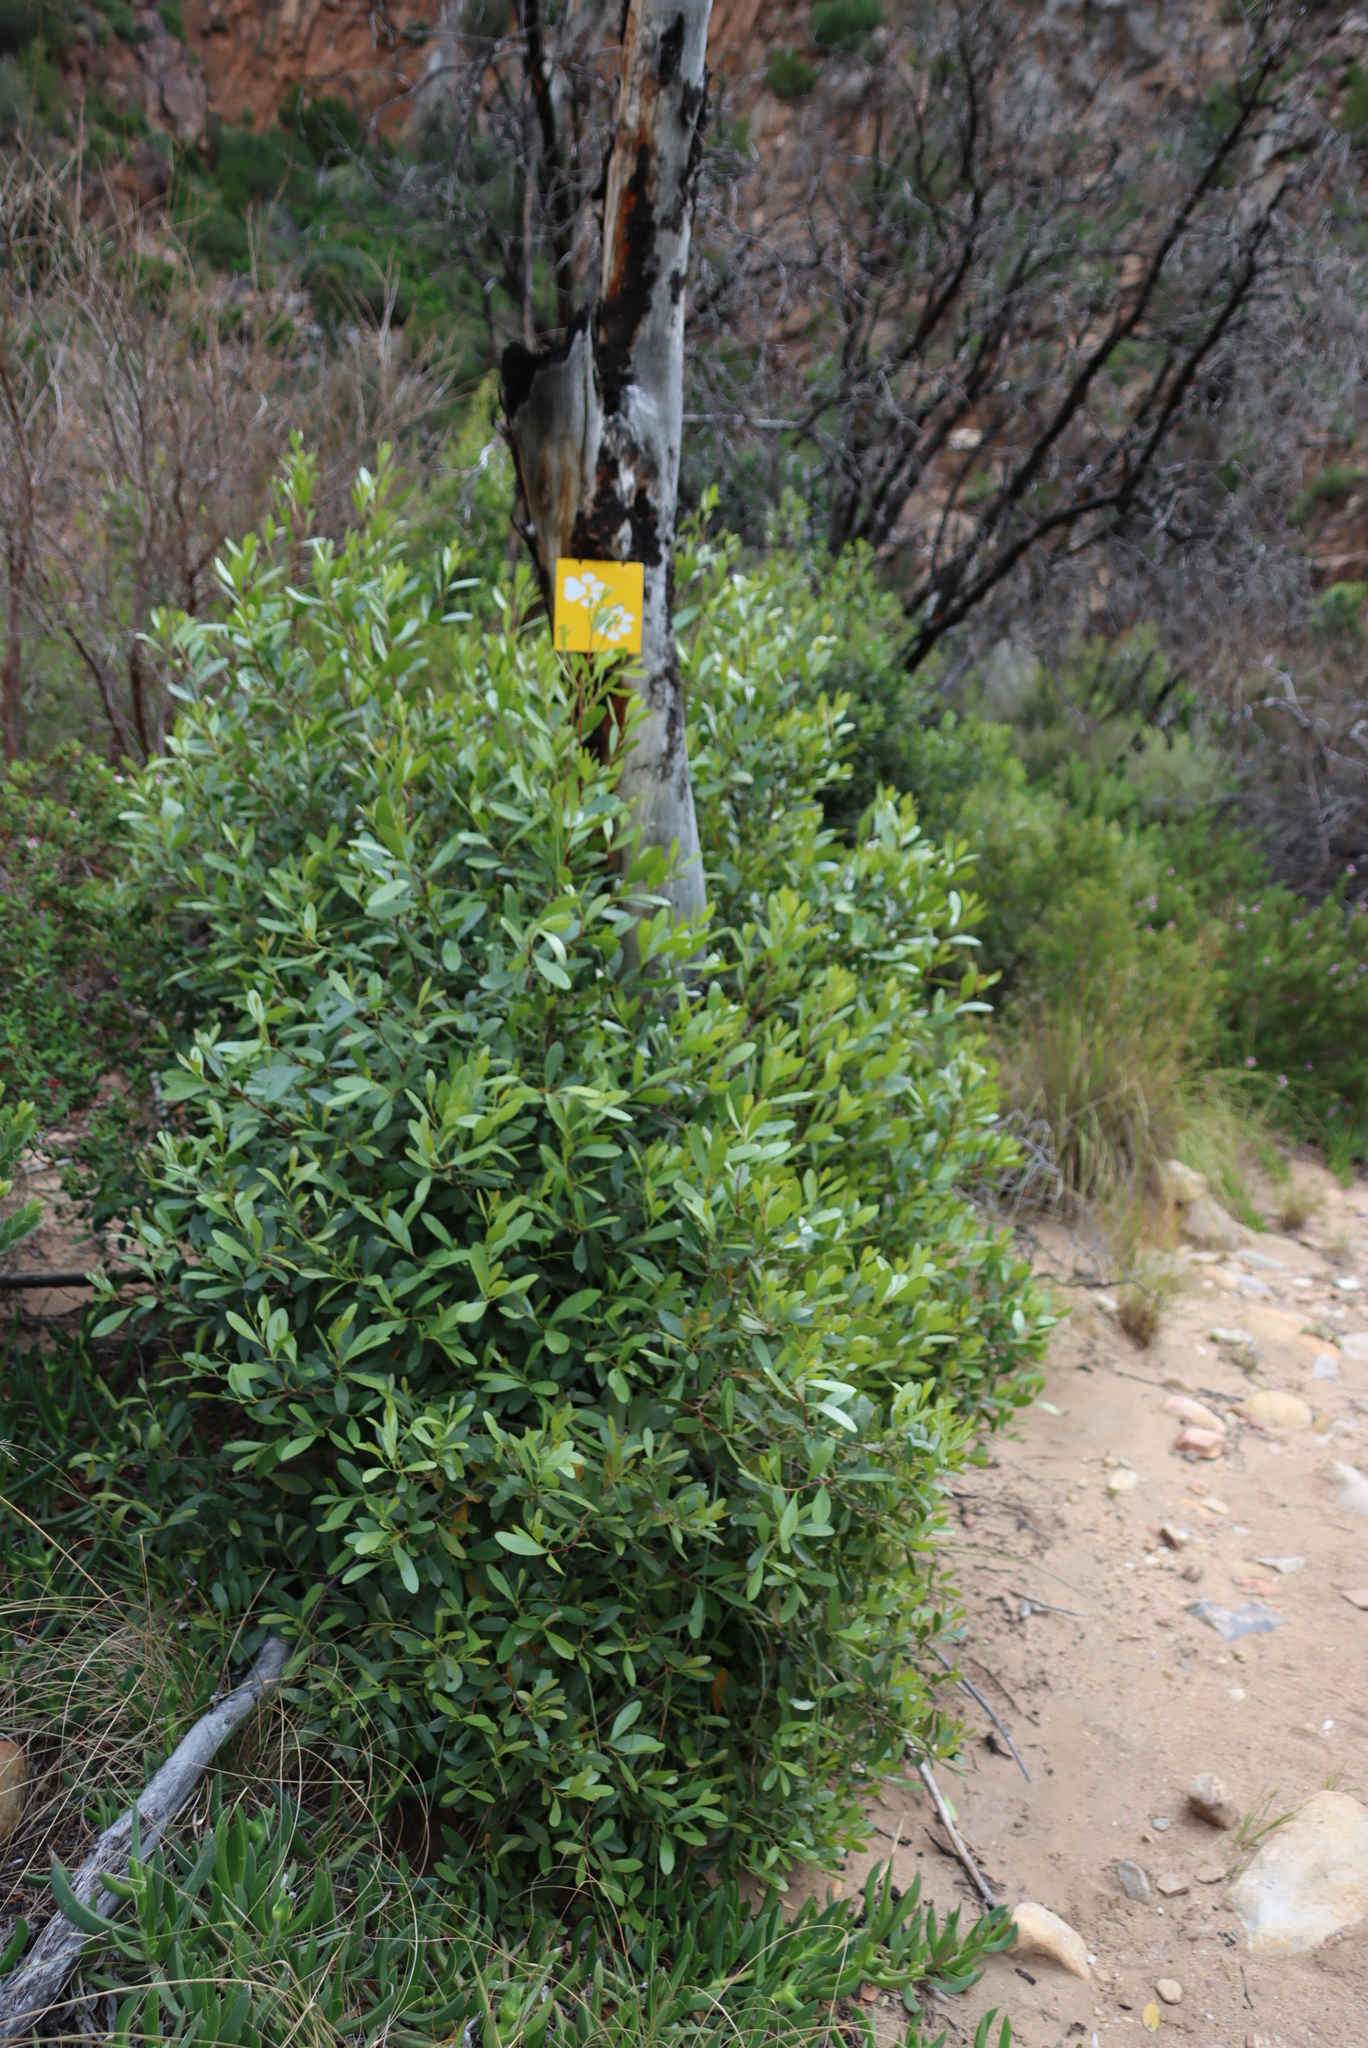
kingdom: Plantae
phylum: Tracheophyta
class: Magnoliopsida
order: Celastrales
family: Celastraceae
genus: Gymnosporia
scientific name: Gymnosporia laurina
